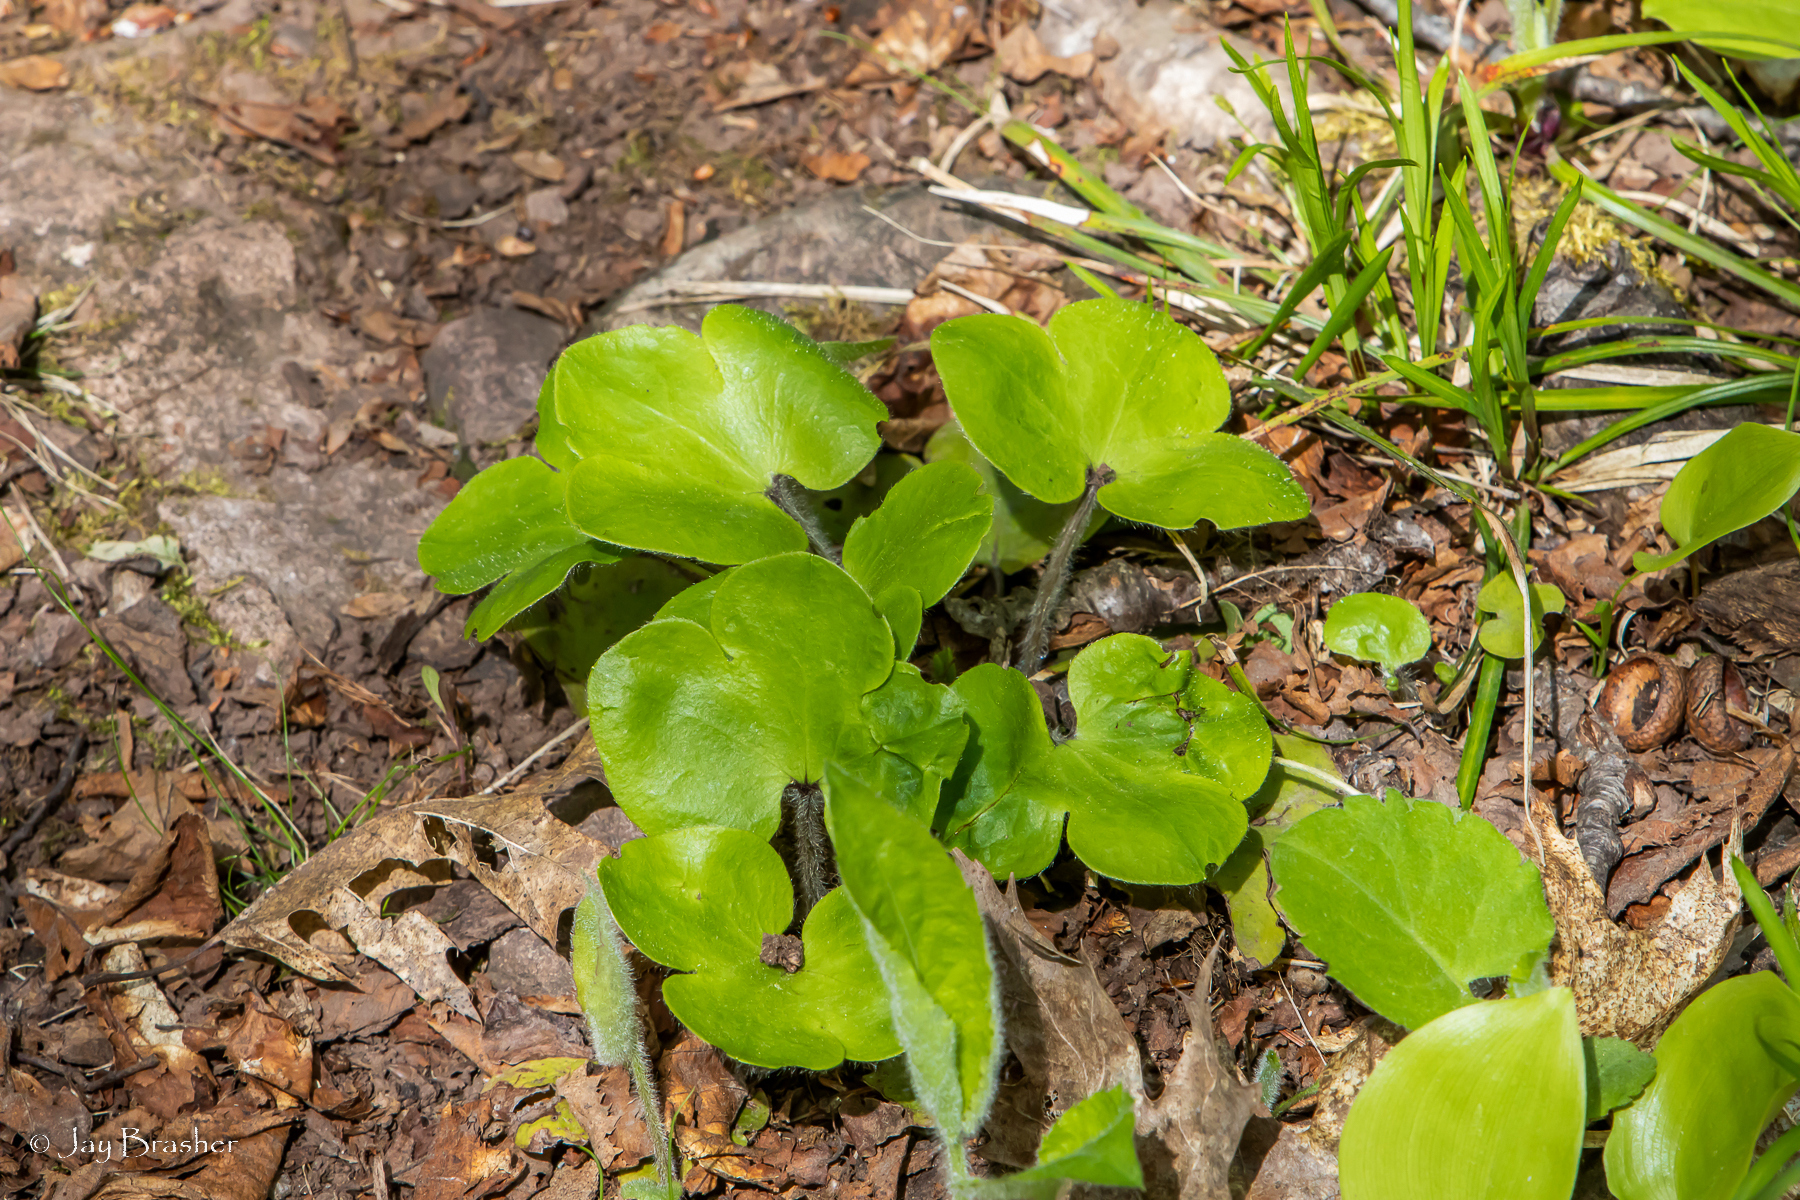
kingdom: Plantae
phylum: Tracheophyta
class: Magnoliopsida
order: Ranunculales
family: Ranunculaceae
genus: Hepatica
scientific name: Hepatica americana
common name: American hepatica
